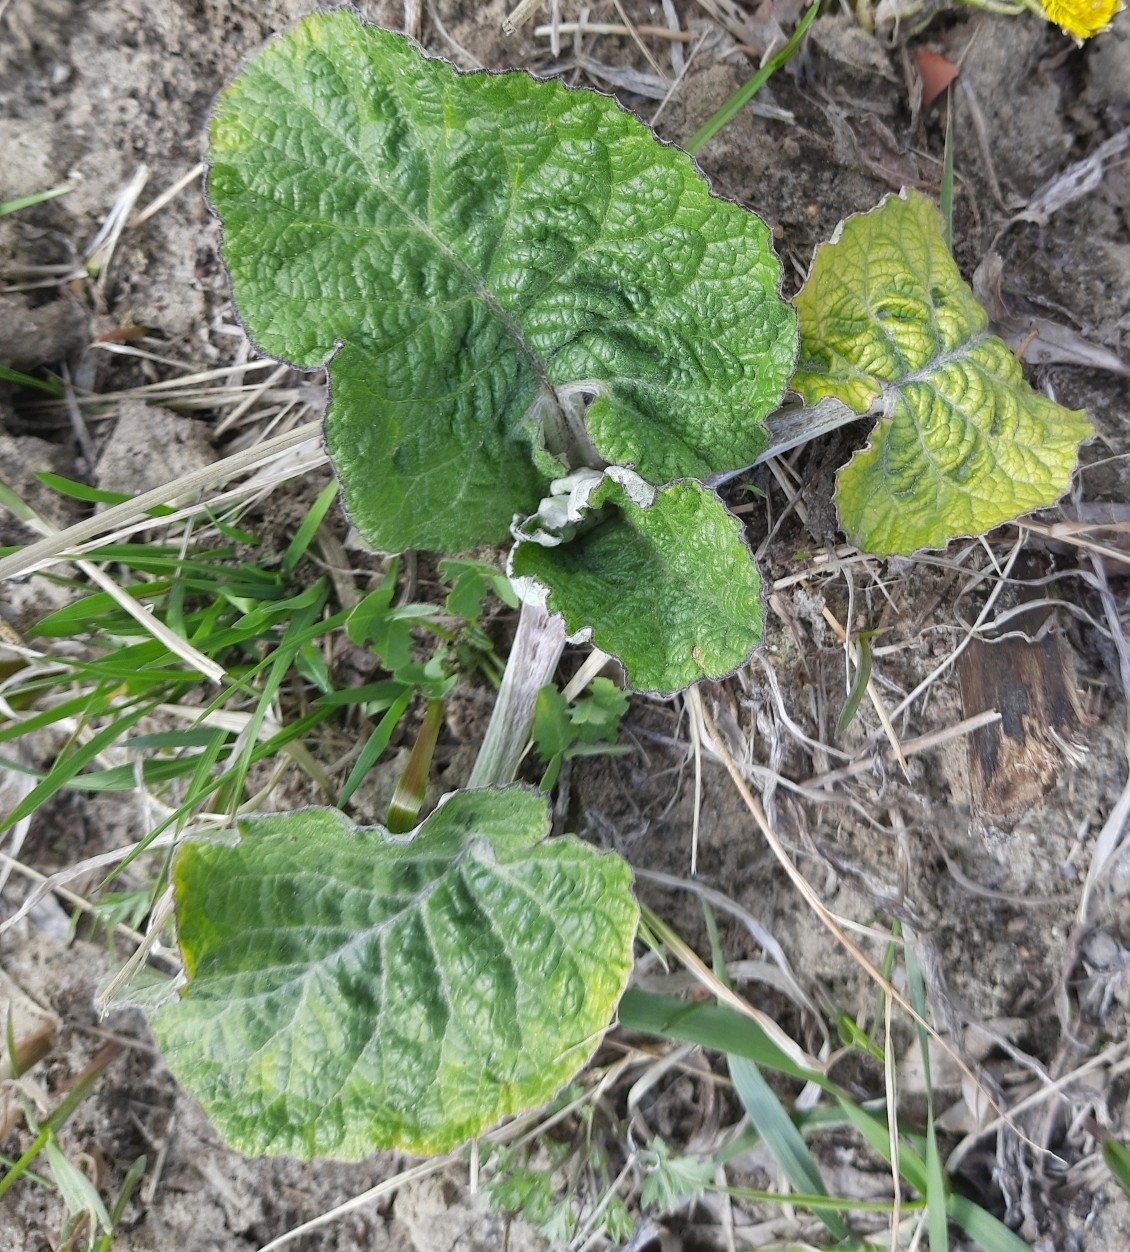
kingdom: Plantae
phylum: Tracheophyta
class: Magnoliopsida
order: Asterales
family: Asteraceae
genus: Arctium
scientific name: Arctium tomentosum
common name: Woolly burdock
